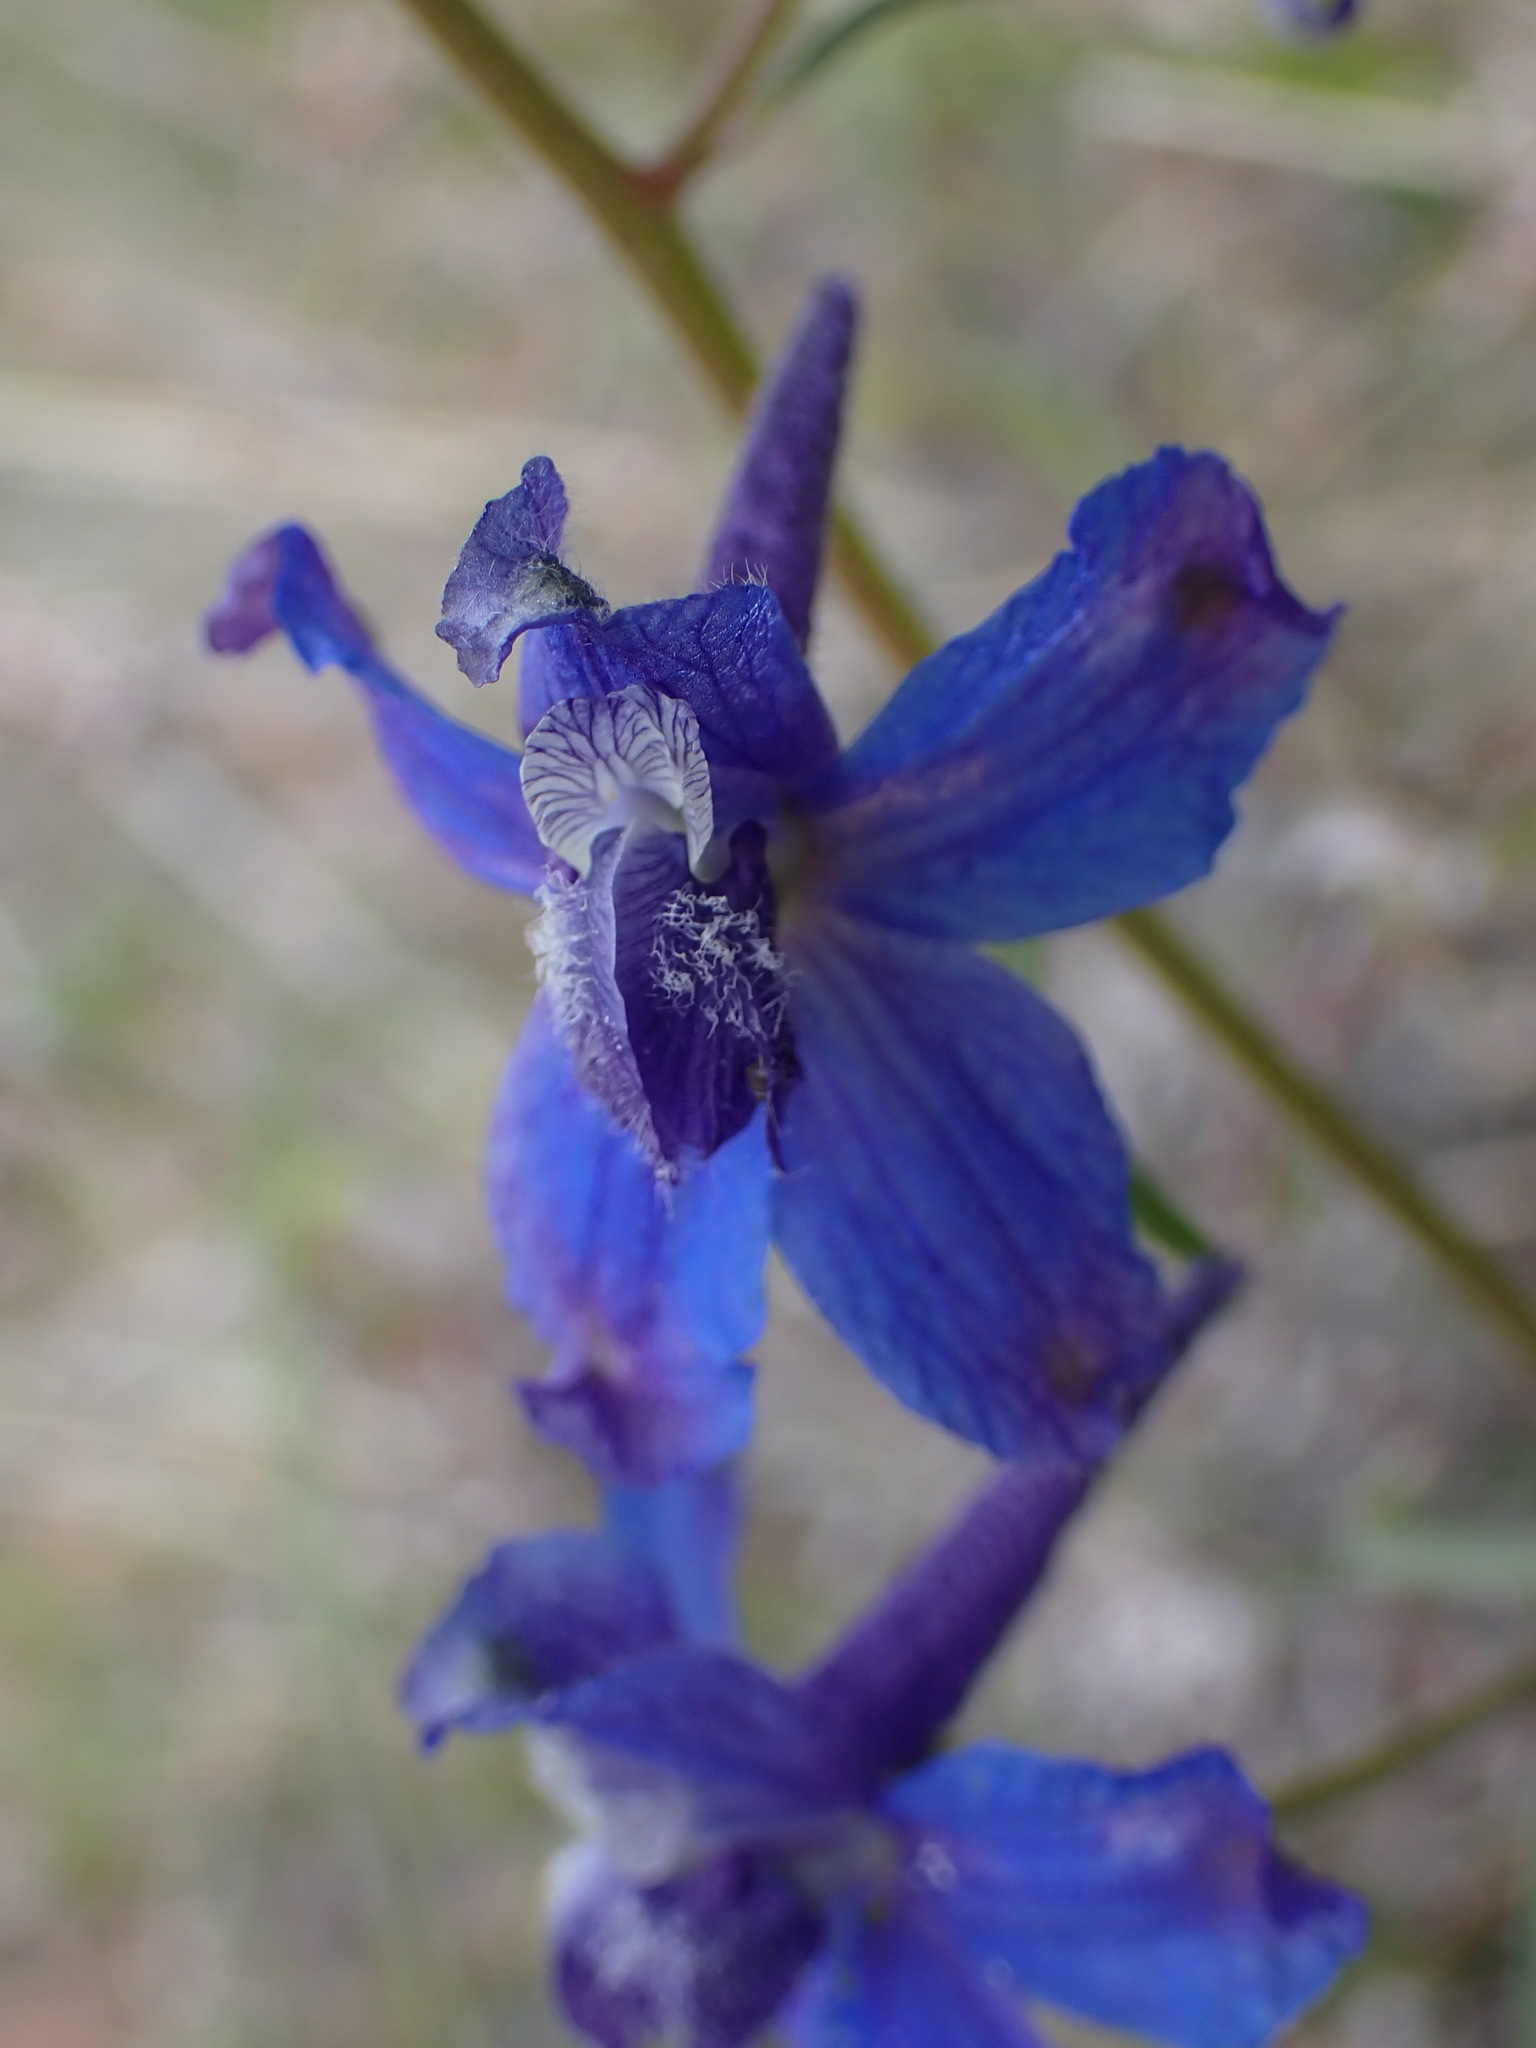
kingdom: Plantae
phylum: Tracheophyta
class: Magnoliopsida
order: Ranunculales
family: Ranunculaceae
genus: Delphinium
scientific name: Delphinium nuttallianum
